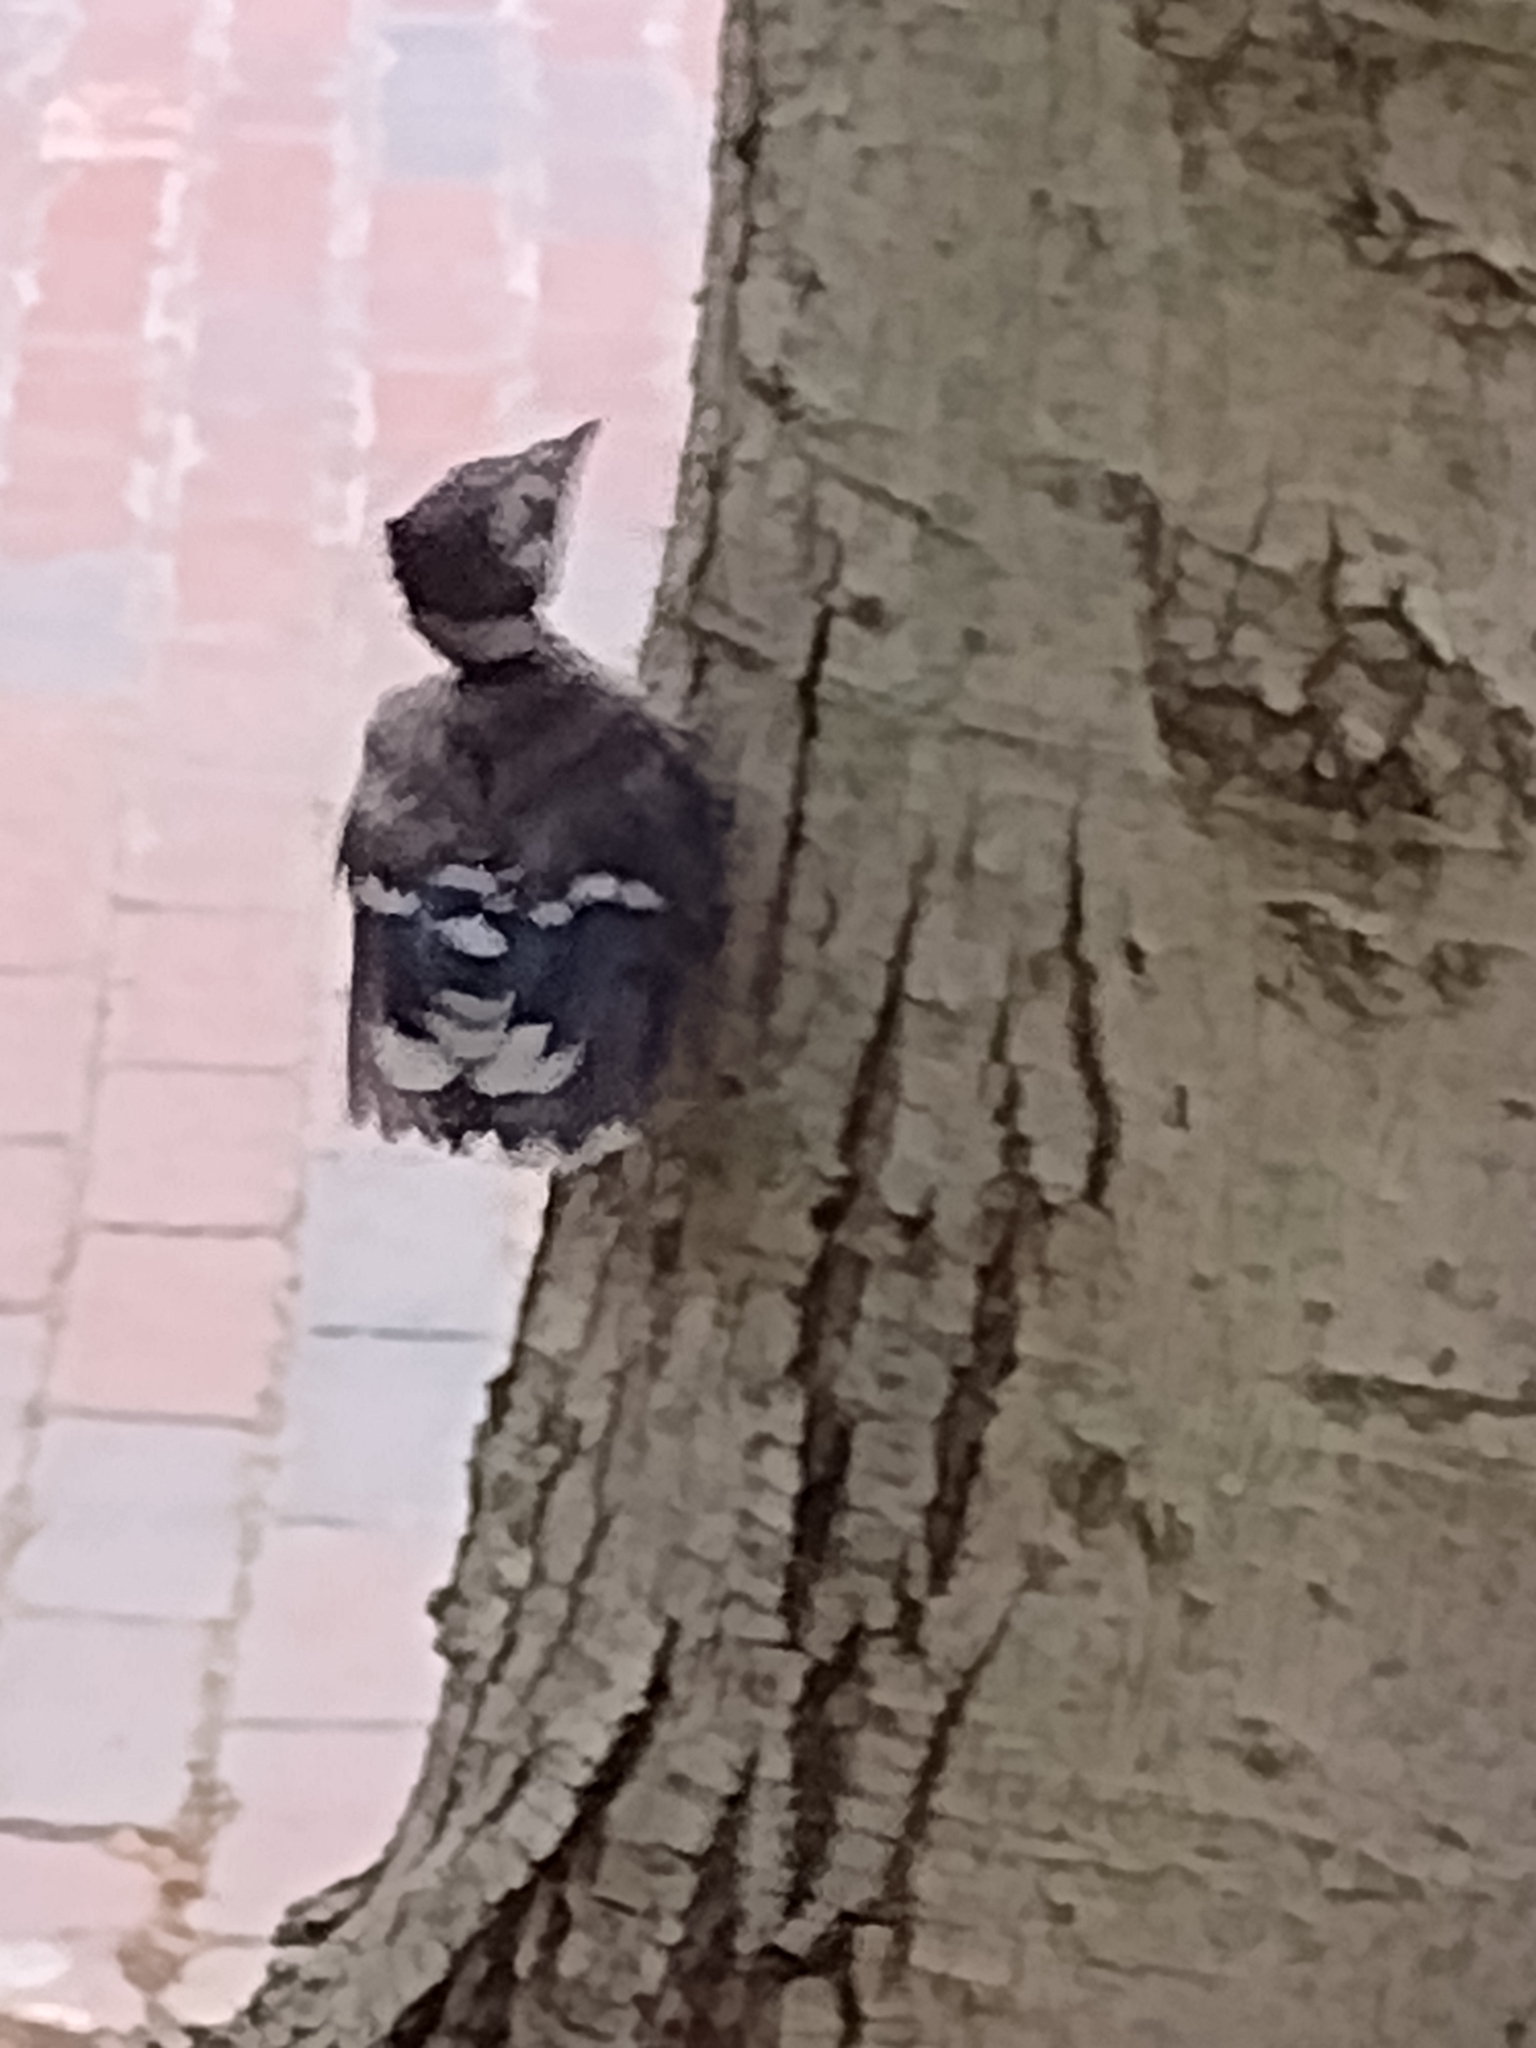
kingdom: Animalia
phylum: Chordata
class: Aves
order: Passeriformes
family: Corvidae
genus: Cyanocitta
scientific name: Cyanocitta cristata
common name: Blue jay
